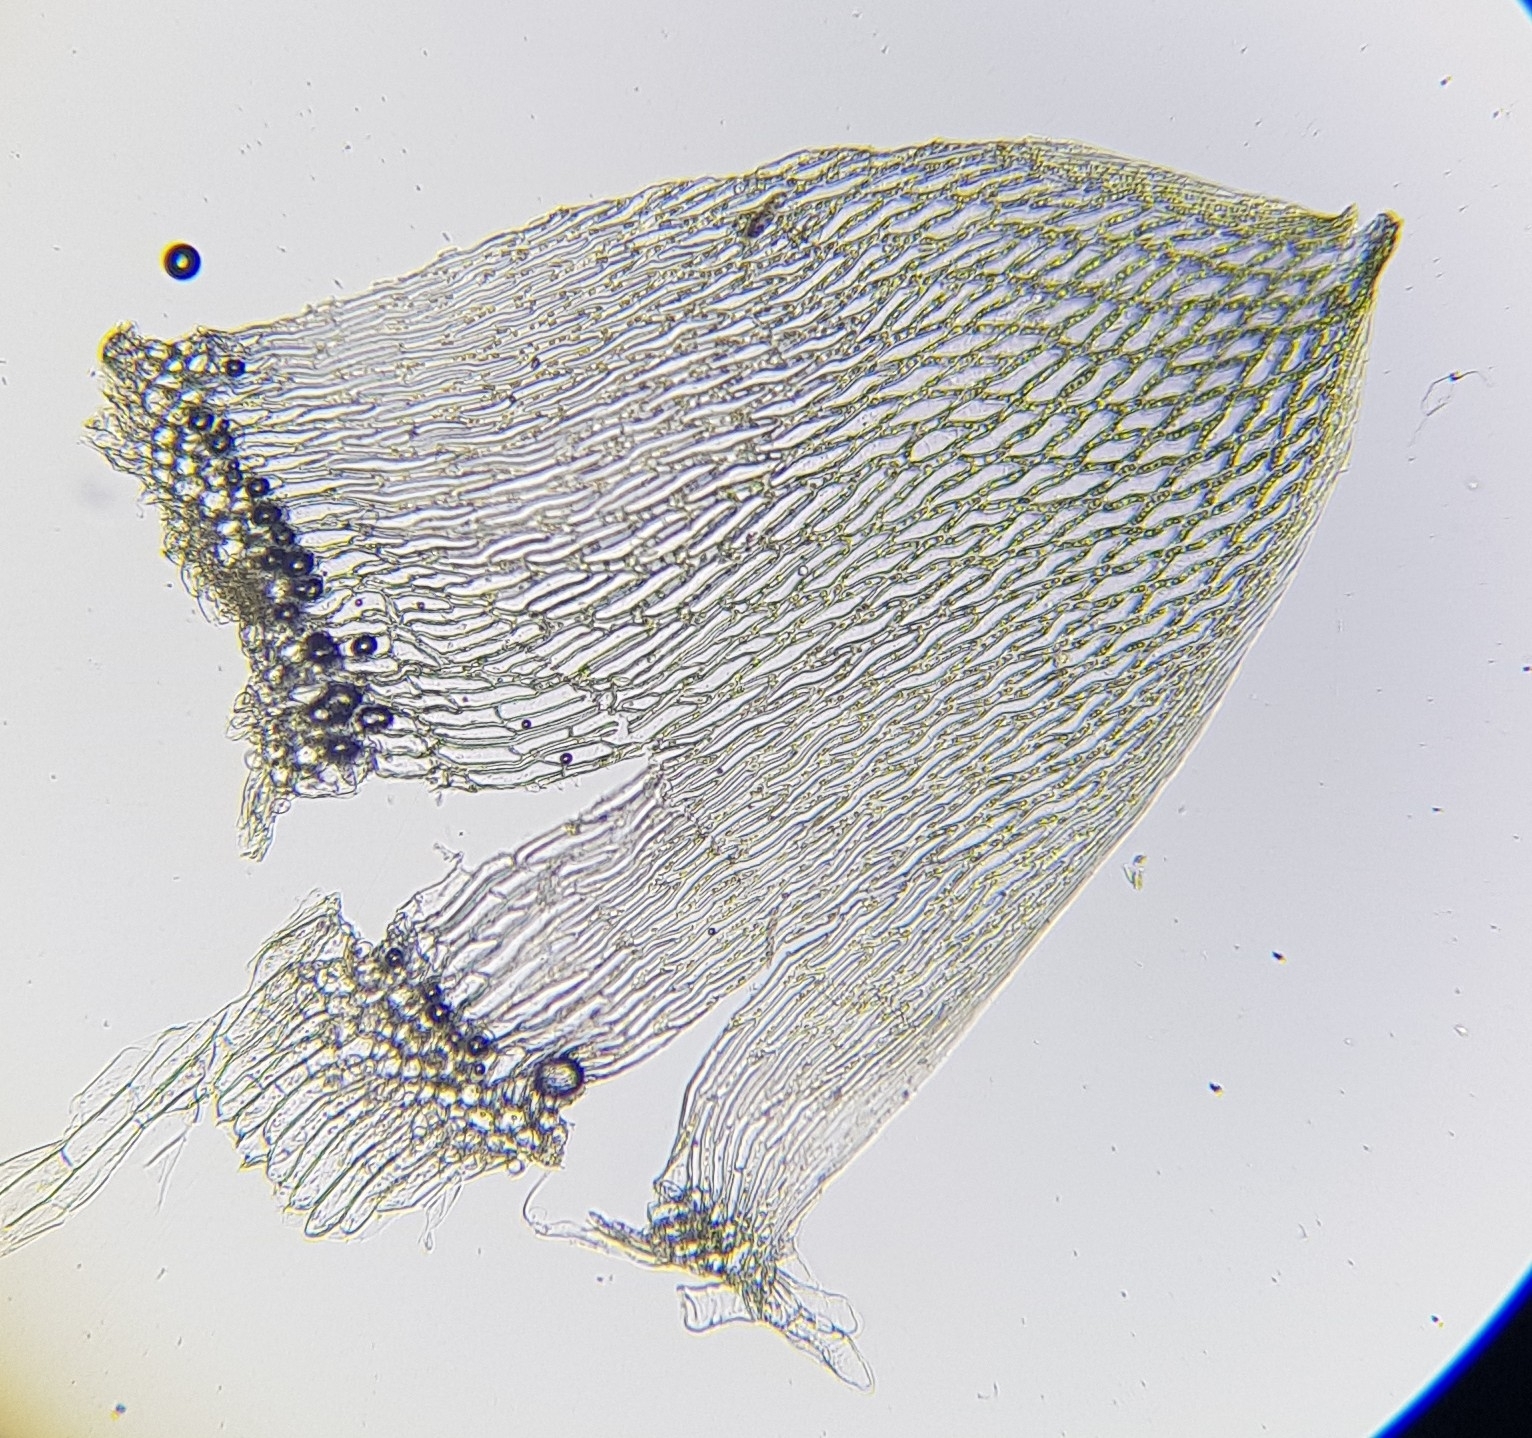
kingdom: Plantae
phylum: Bryophyta
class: Sphagnopsida
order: Sphagnales
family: Sphagnaceae
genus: Sphagnum
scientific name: Sphagnum fallax
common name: Flat-top peat moss
